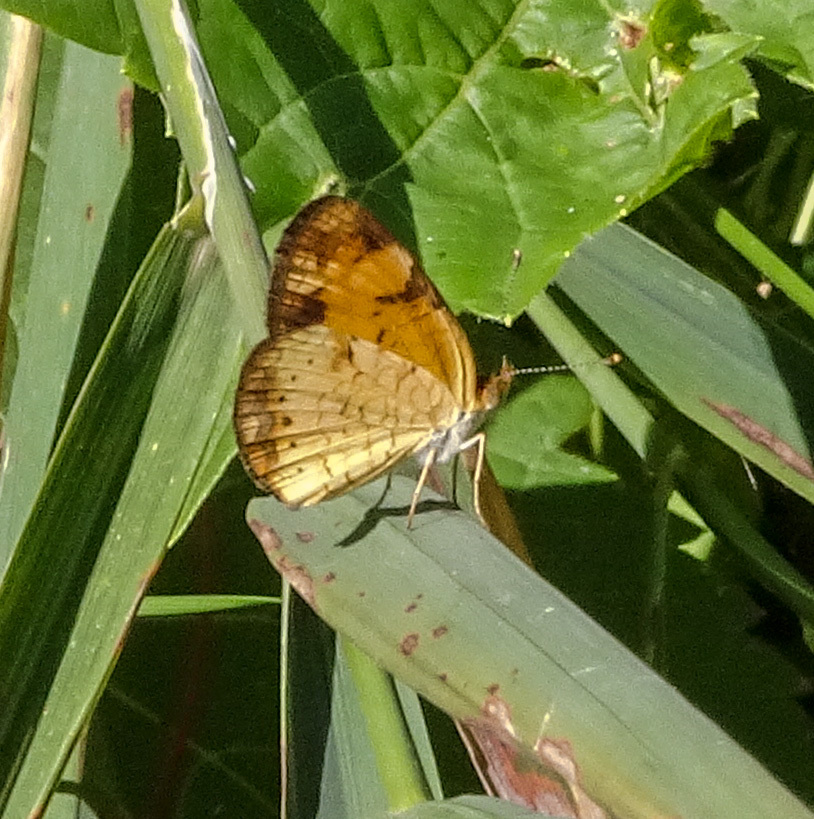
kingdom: Animalia
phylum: Arthropoda
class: Insecta
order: Lepidoptera
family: Nymphalidae
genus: Phyciodes
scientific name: Phyciodes tharos
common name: Pearl crescent
